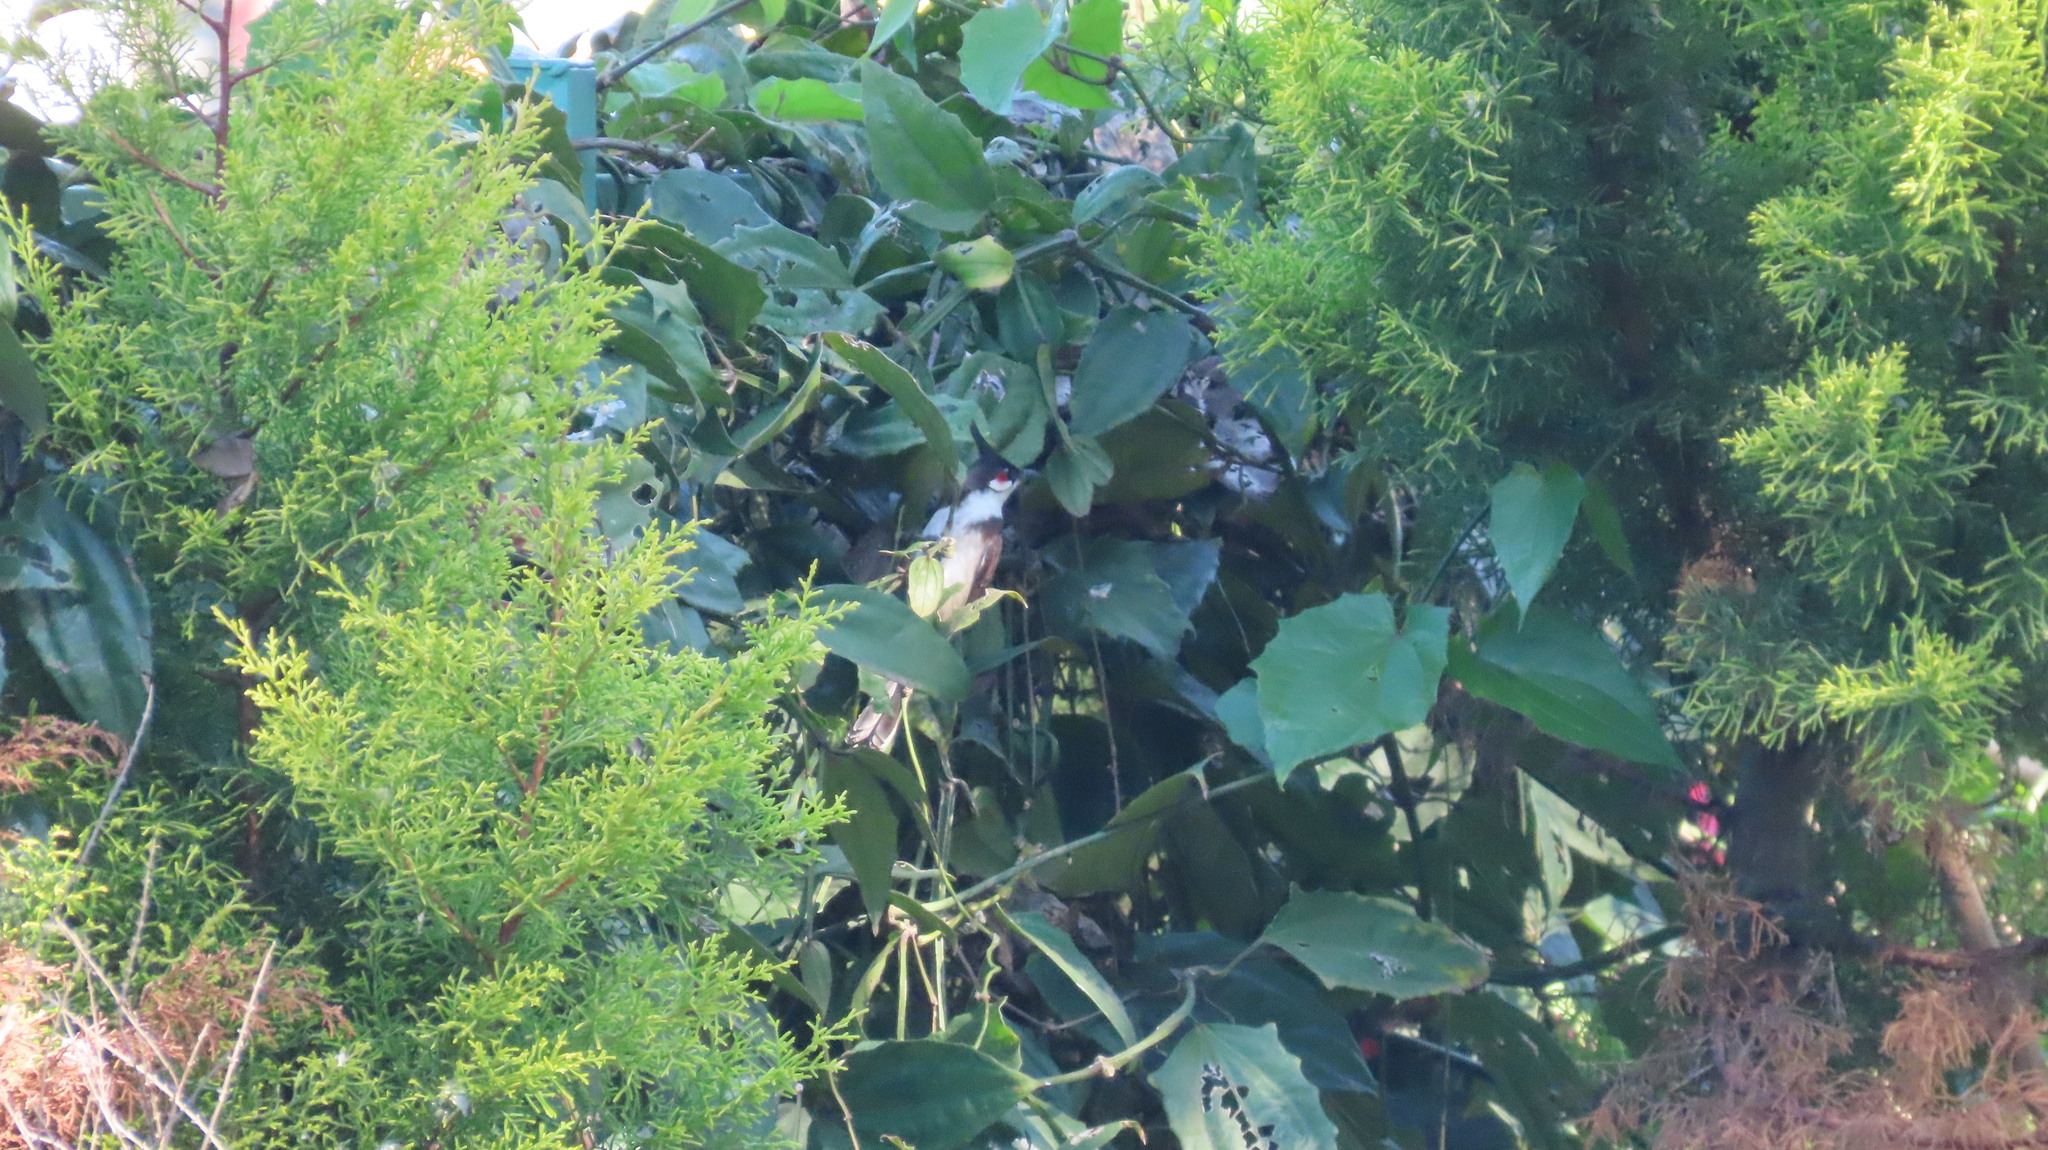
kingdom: Animalia
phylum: Chordata
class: Aves
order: Passeriformes
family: Pycnonotidae
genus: Pycnonotus
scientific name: Pycnonotus jocosus
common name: Red-whiskered bulbul
